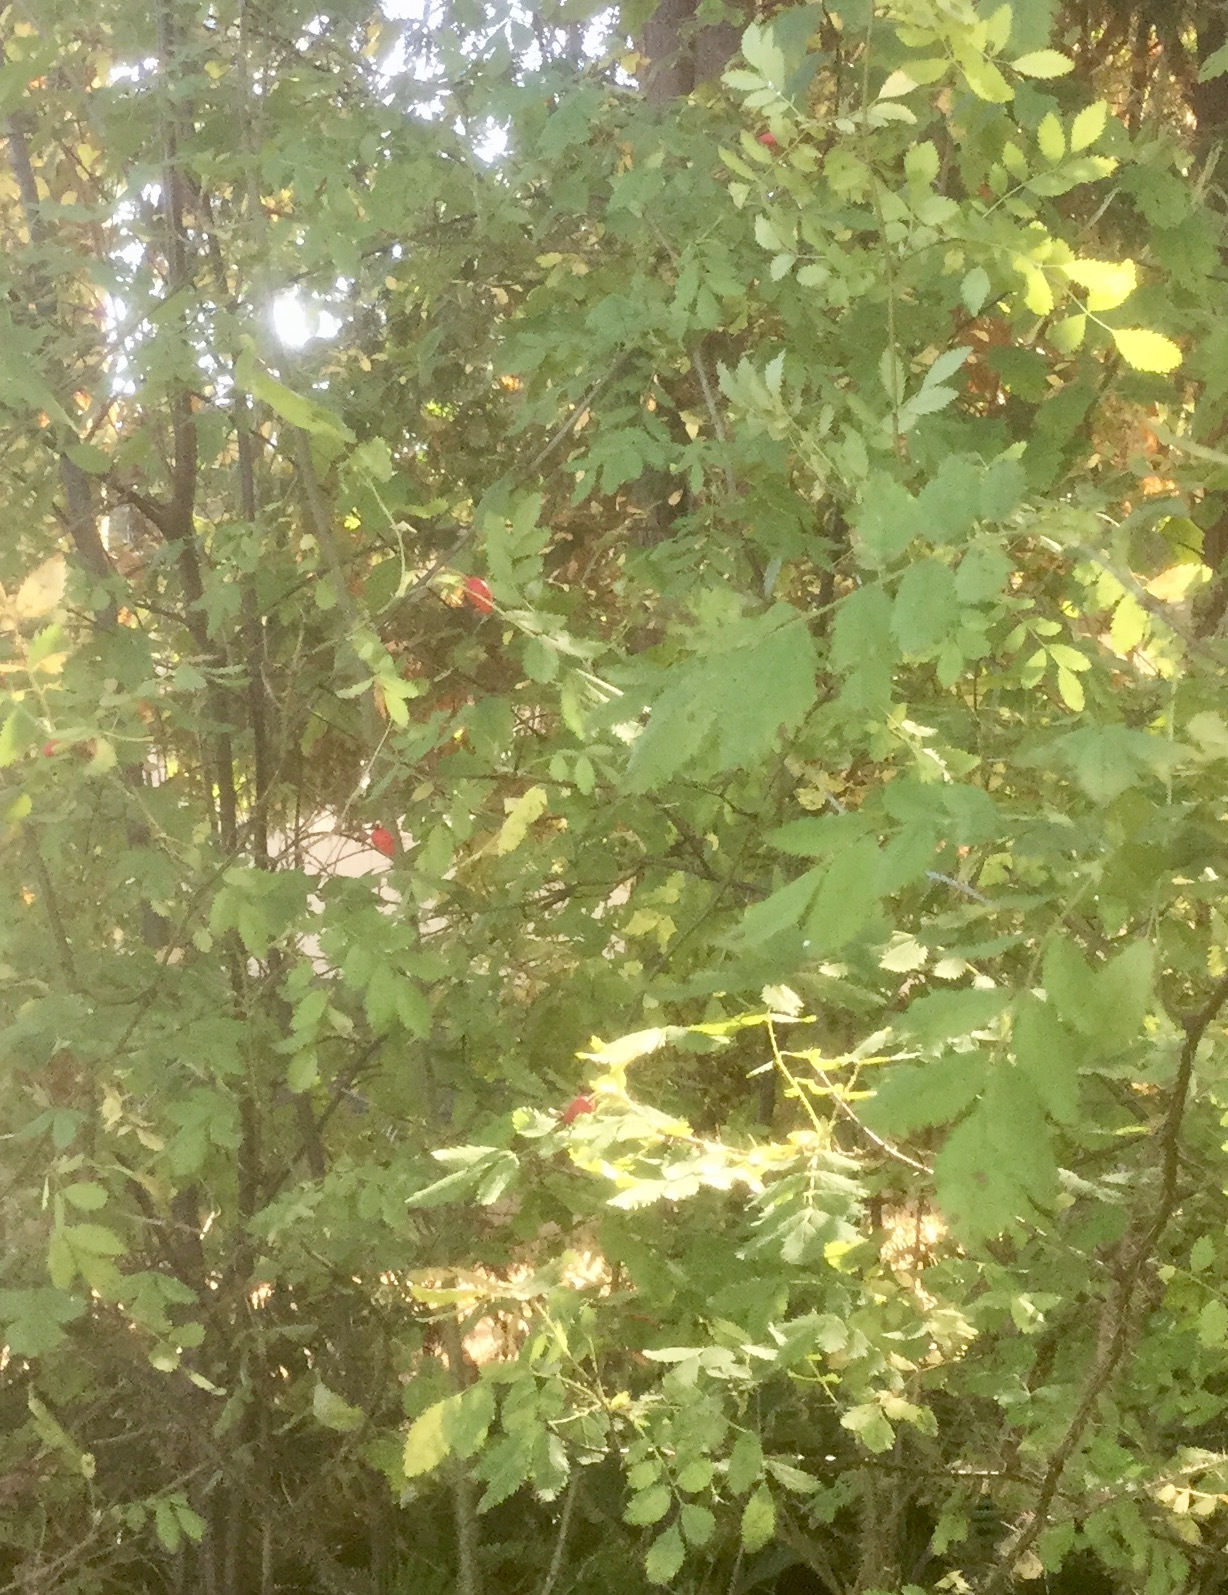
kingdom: Plantae
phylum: Tracheophyta
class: Magnoliopsida
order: Rosales
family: Rosaceae
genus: Rosa
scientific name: Rosa gymnocarpa
